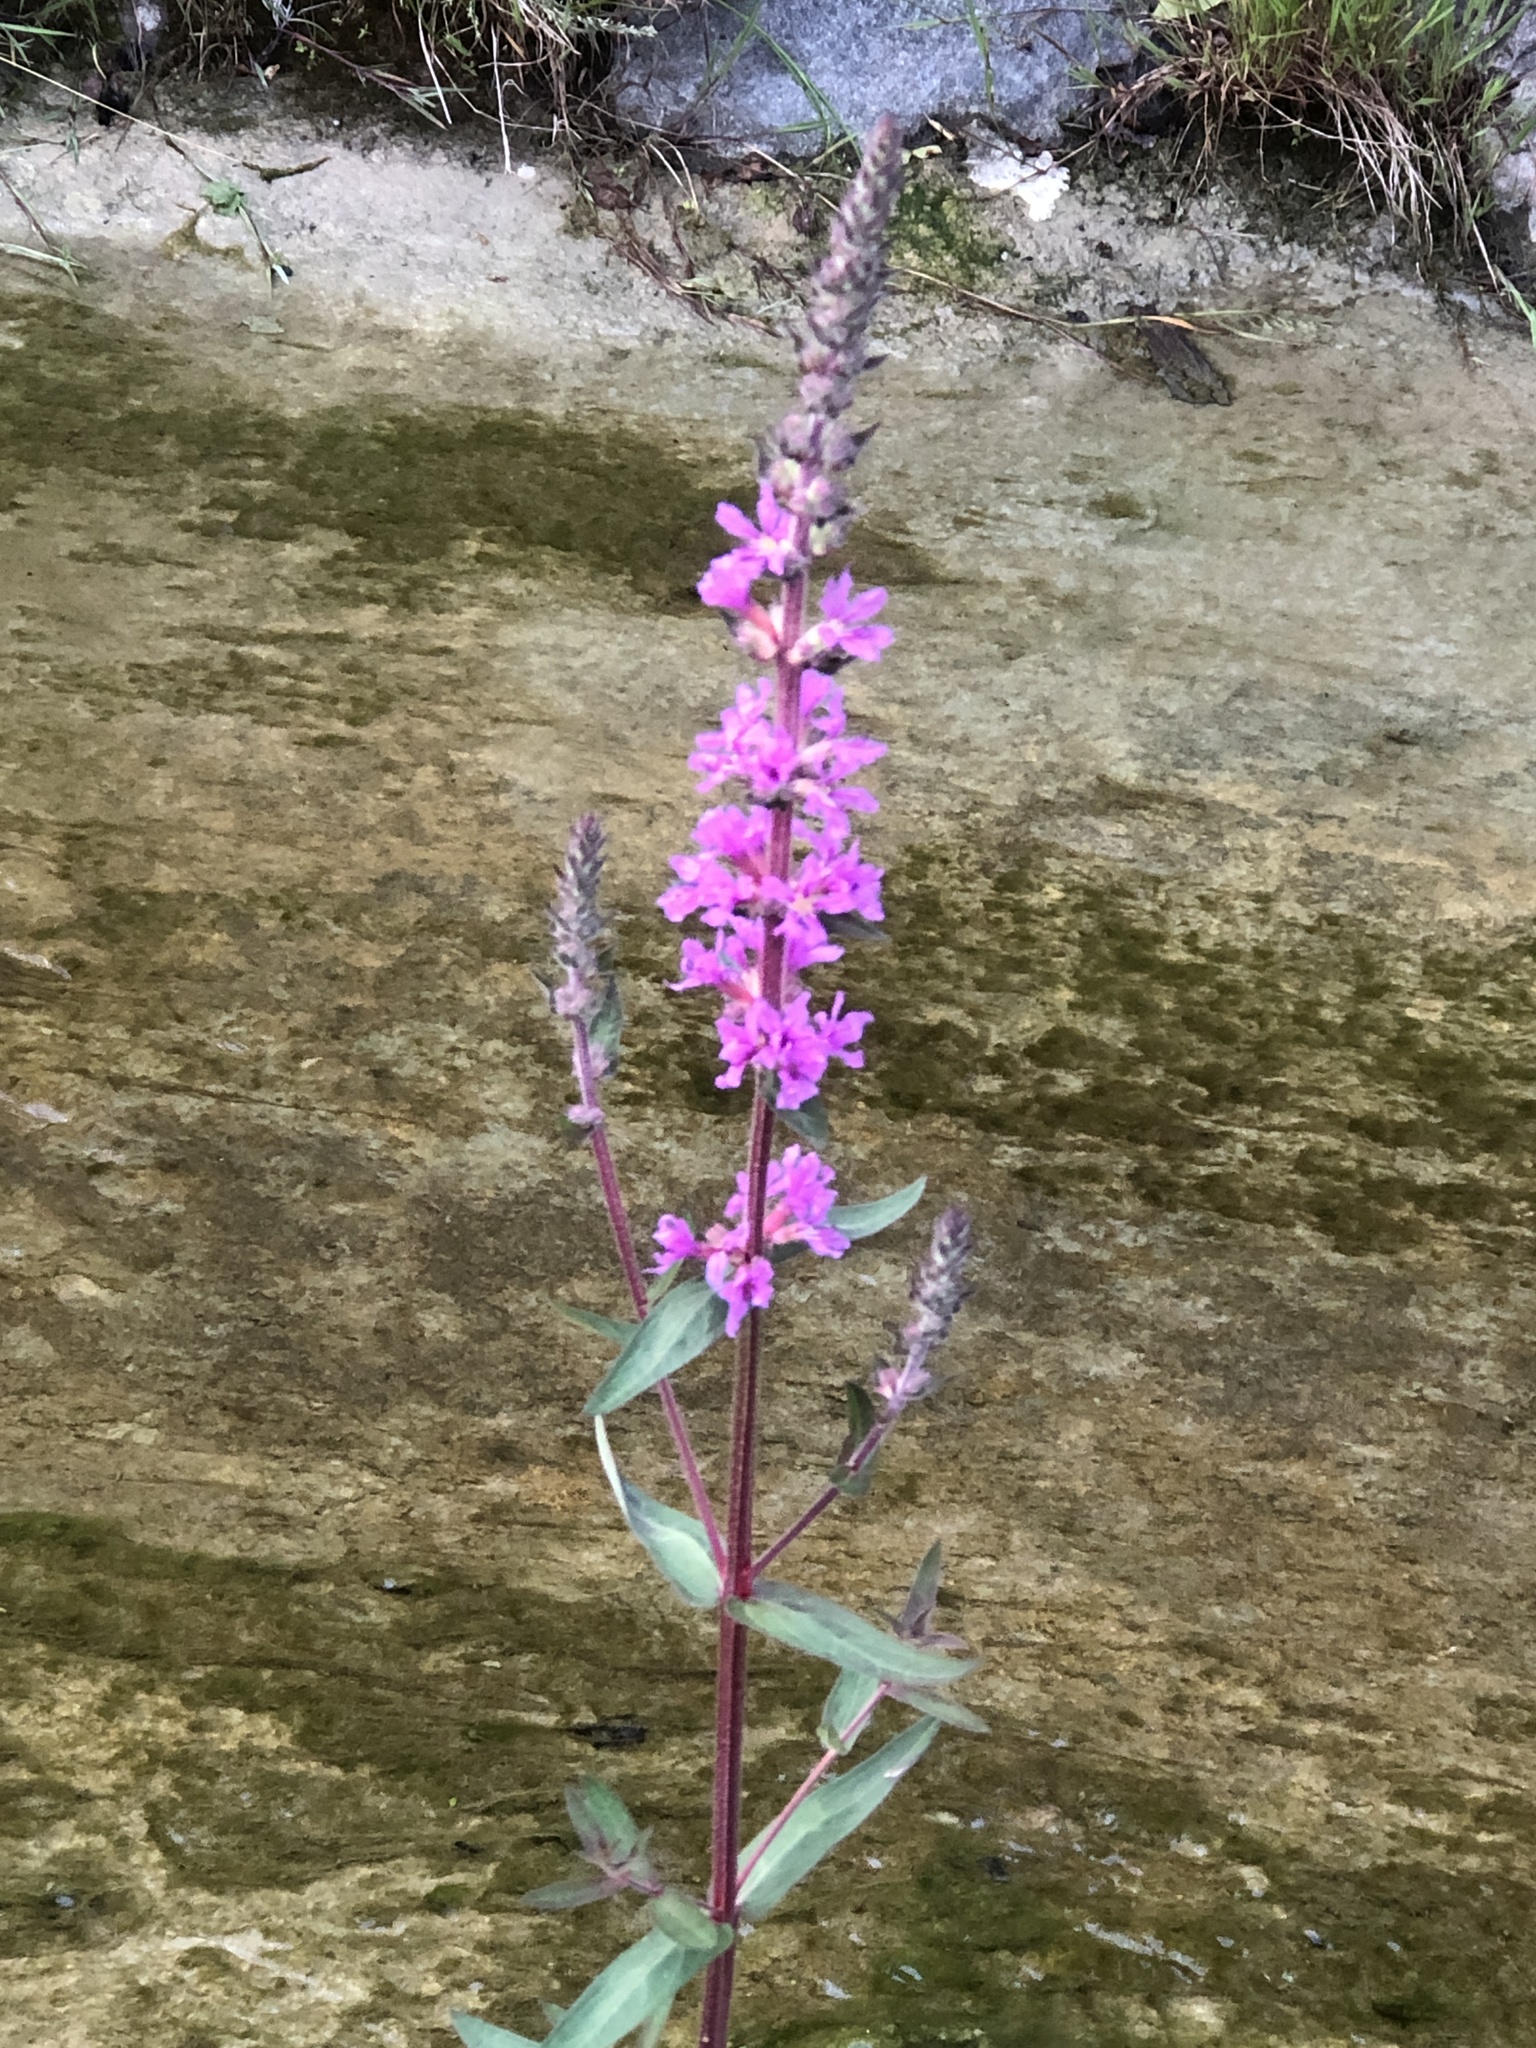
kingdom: Plantae
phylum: Tracheophyta
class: Magnoliopsida
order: Myrtales
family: Lythraceae
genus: Lythrum
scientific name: Lythrum salicaria
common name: Purple loosestrife
